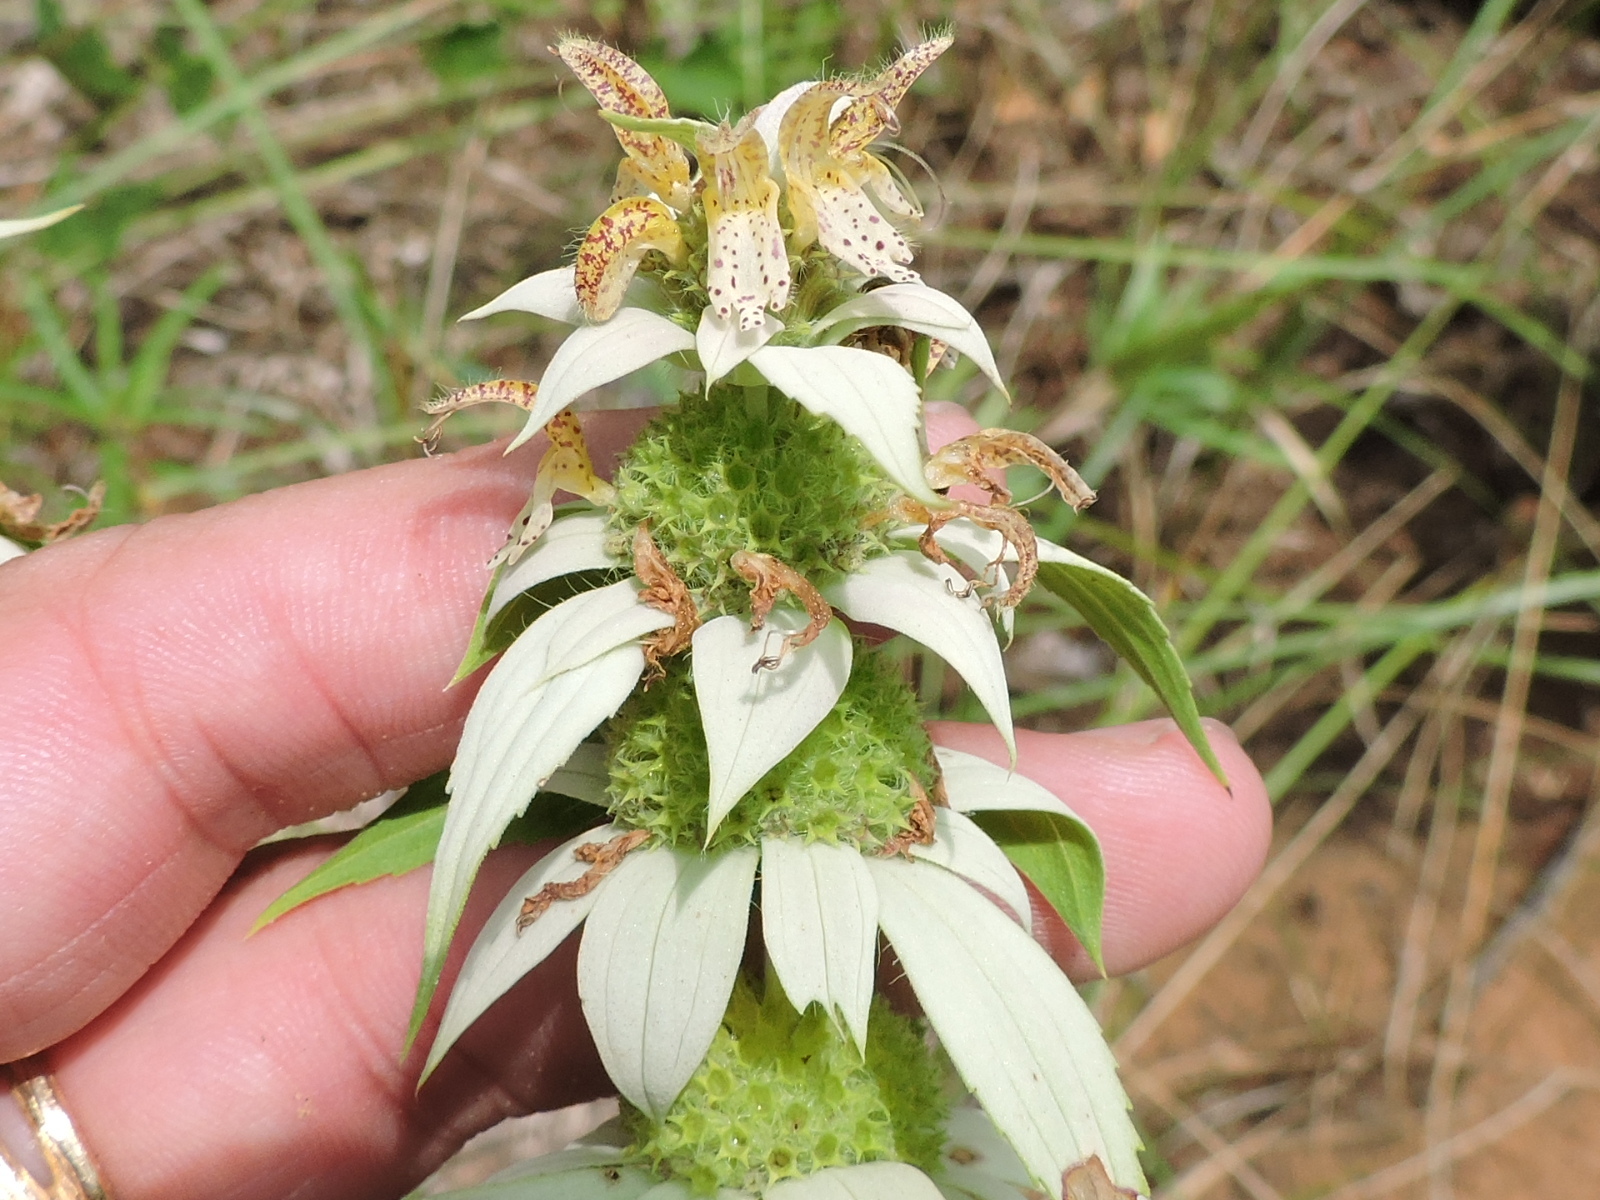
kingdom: Plantae
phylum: Tracheophyta
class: Magnoliopsida
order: Lamiales
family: Lamiaceae
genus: Monarda
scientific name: Monarda punctata
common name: Dotted monarda
